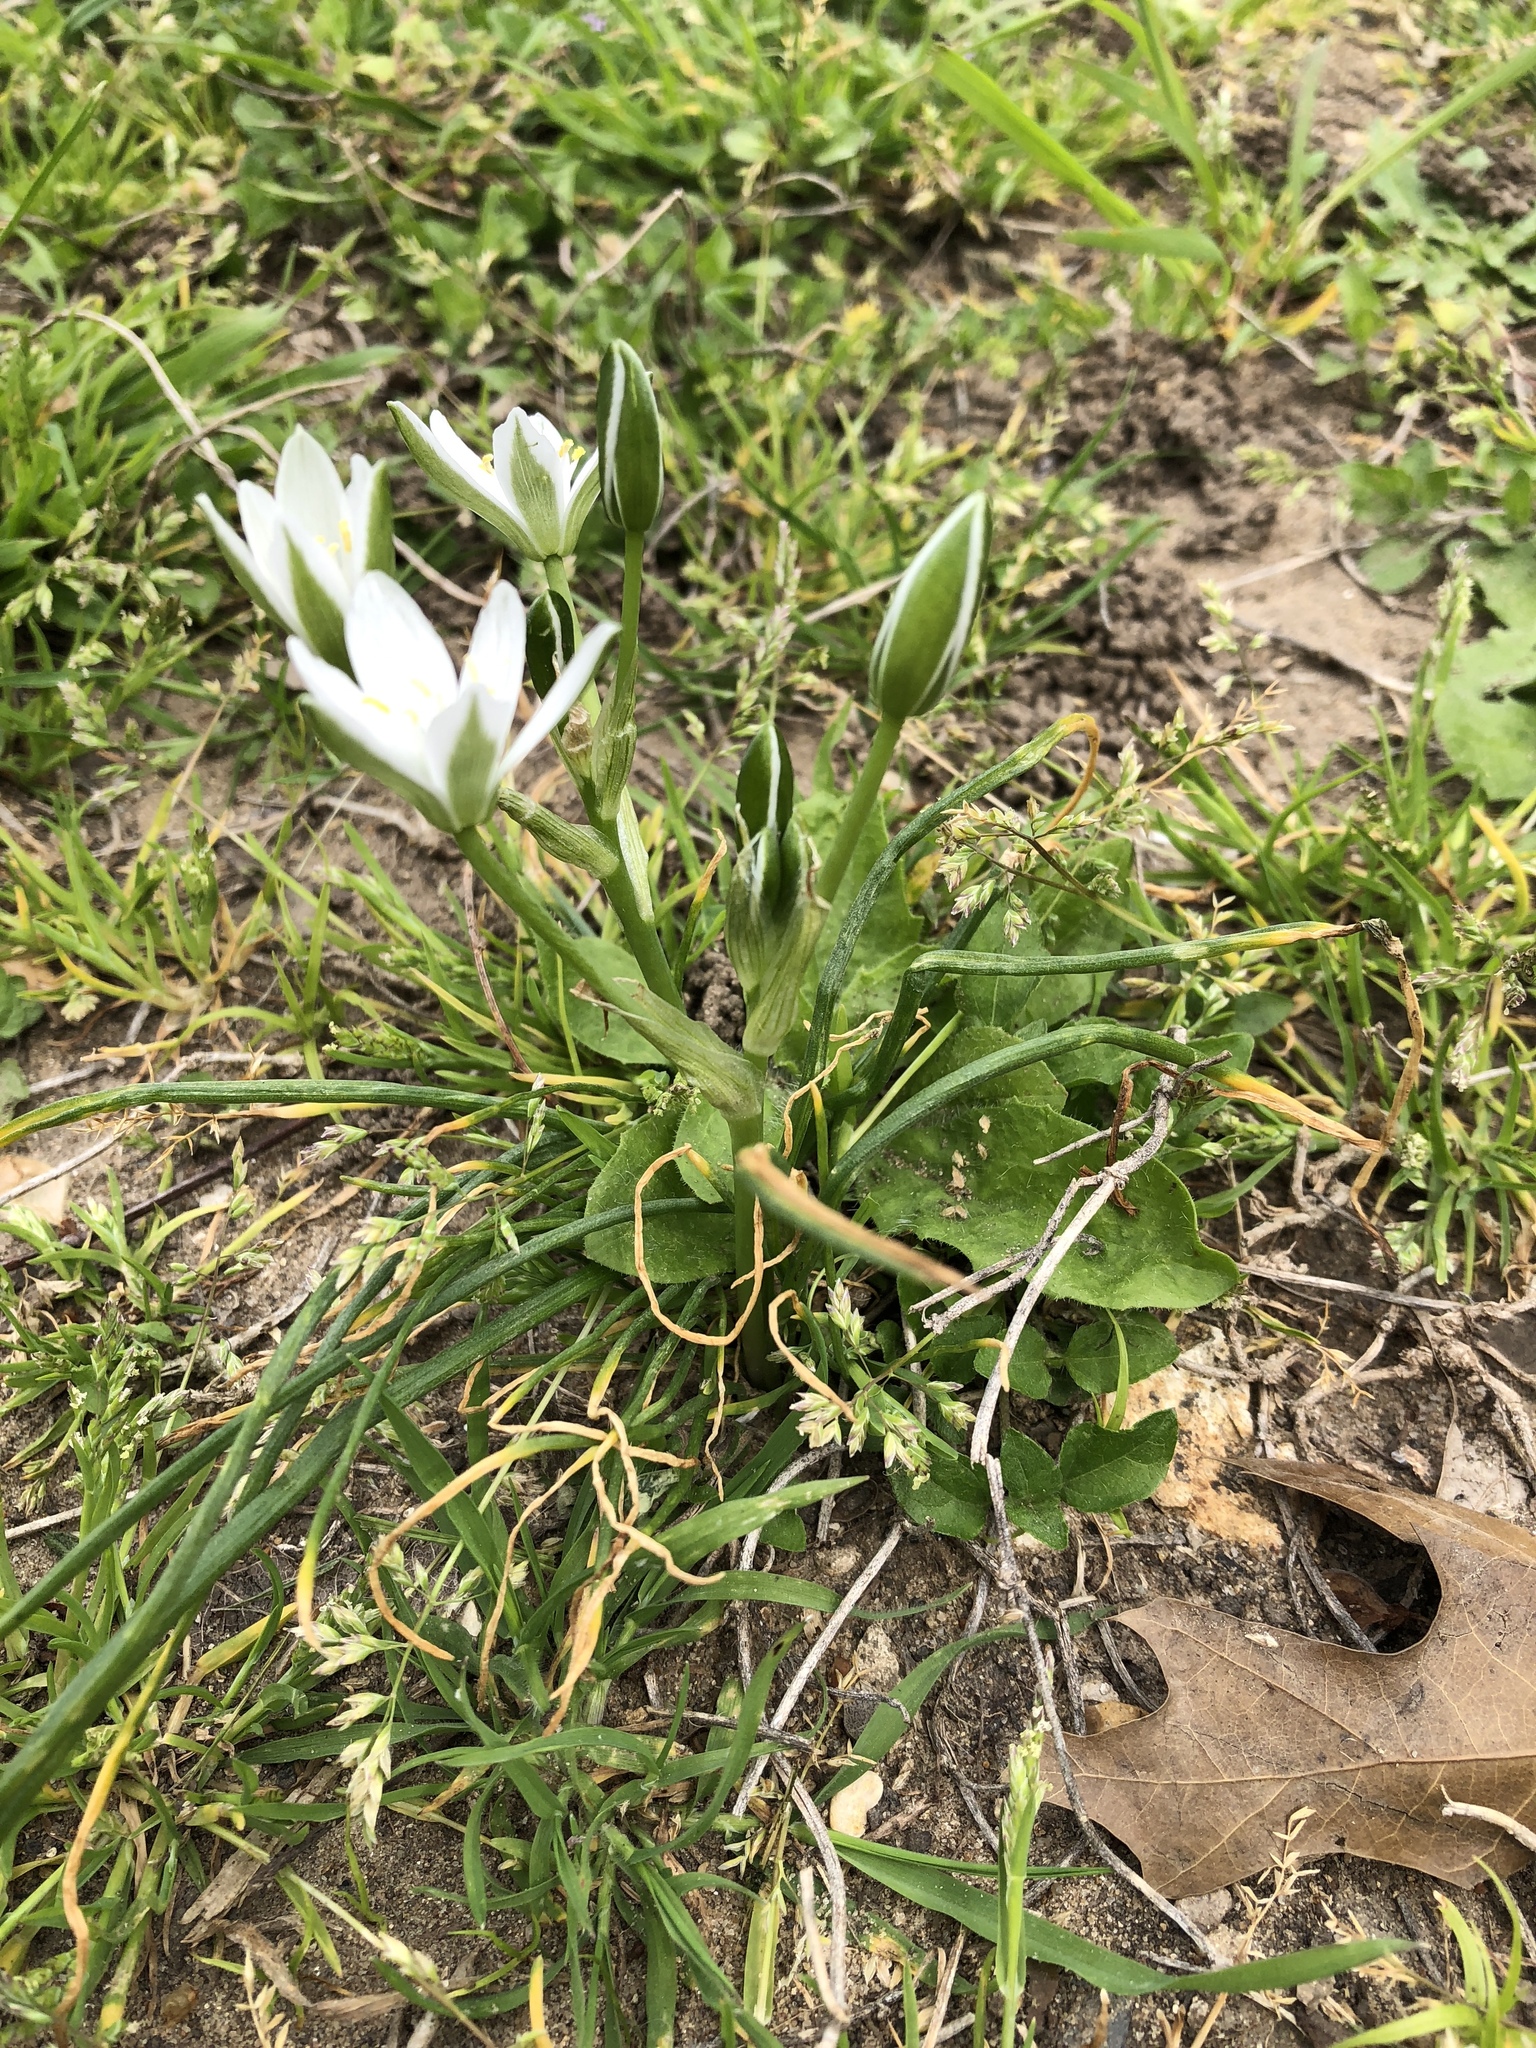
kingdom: Plantae
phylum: Tracheophyta
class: Liliopsida
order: Asparagales
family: Asparagaceae
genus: Ornithogalum
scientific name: Ornithogalum umbellatum
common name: Garden star-of-bethlehem
